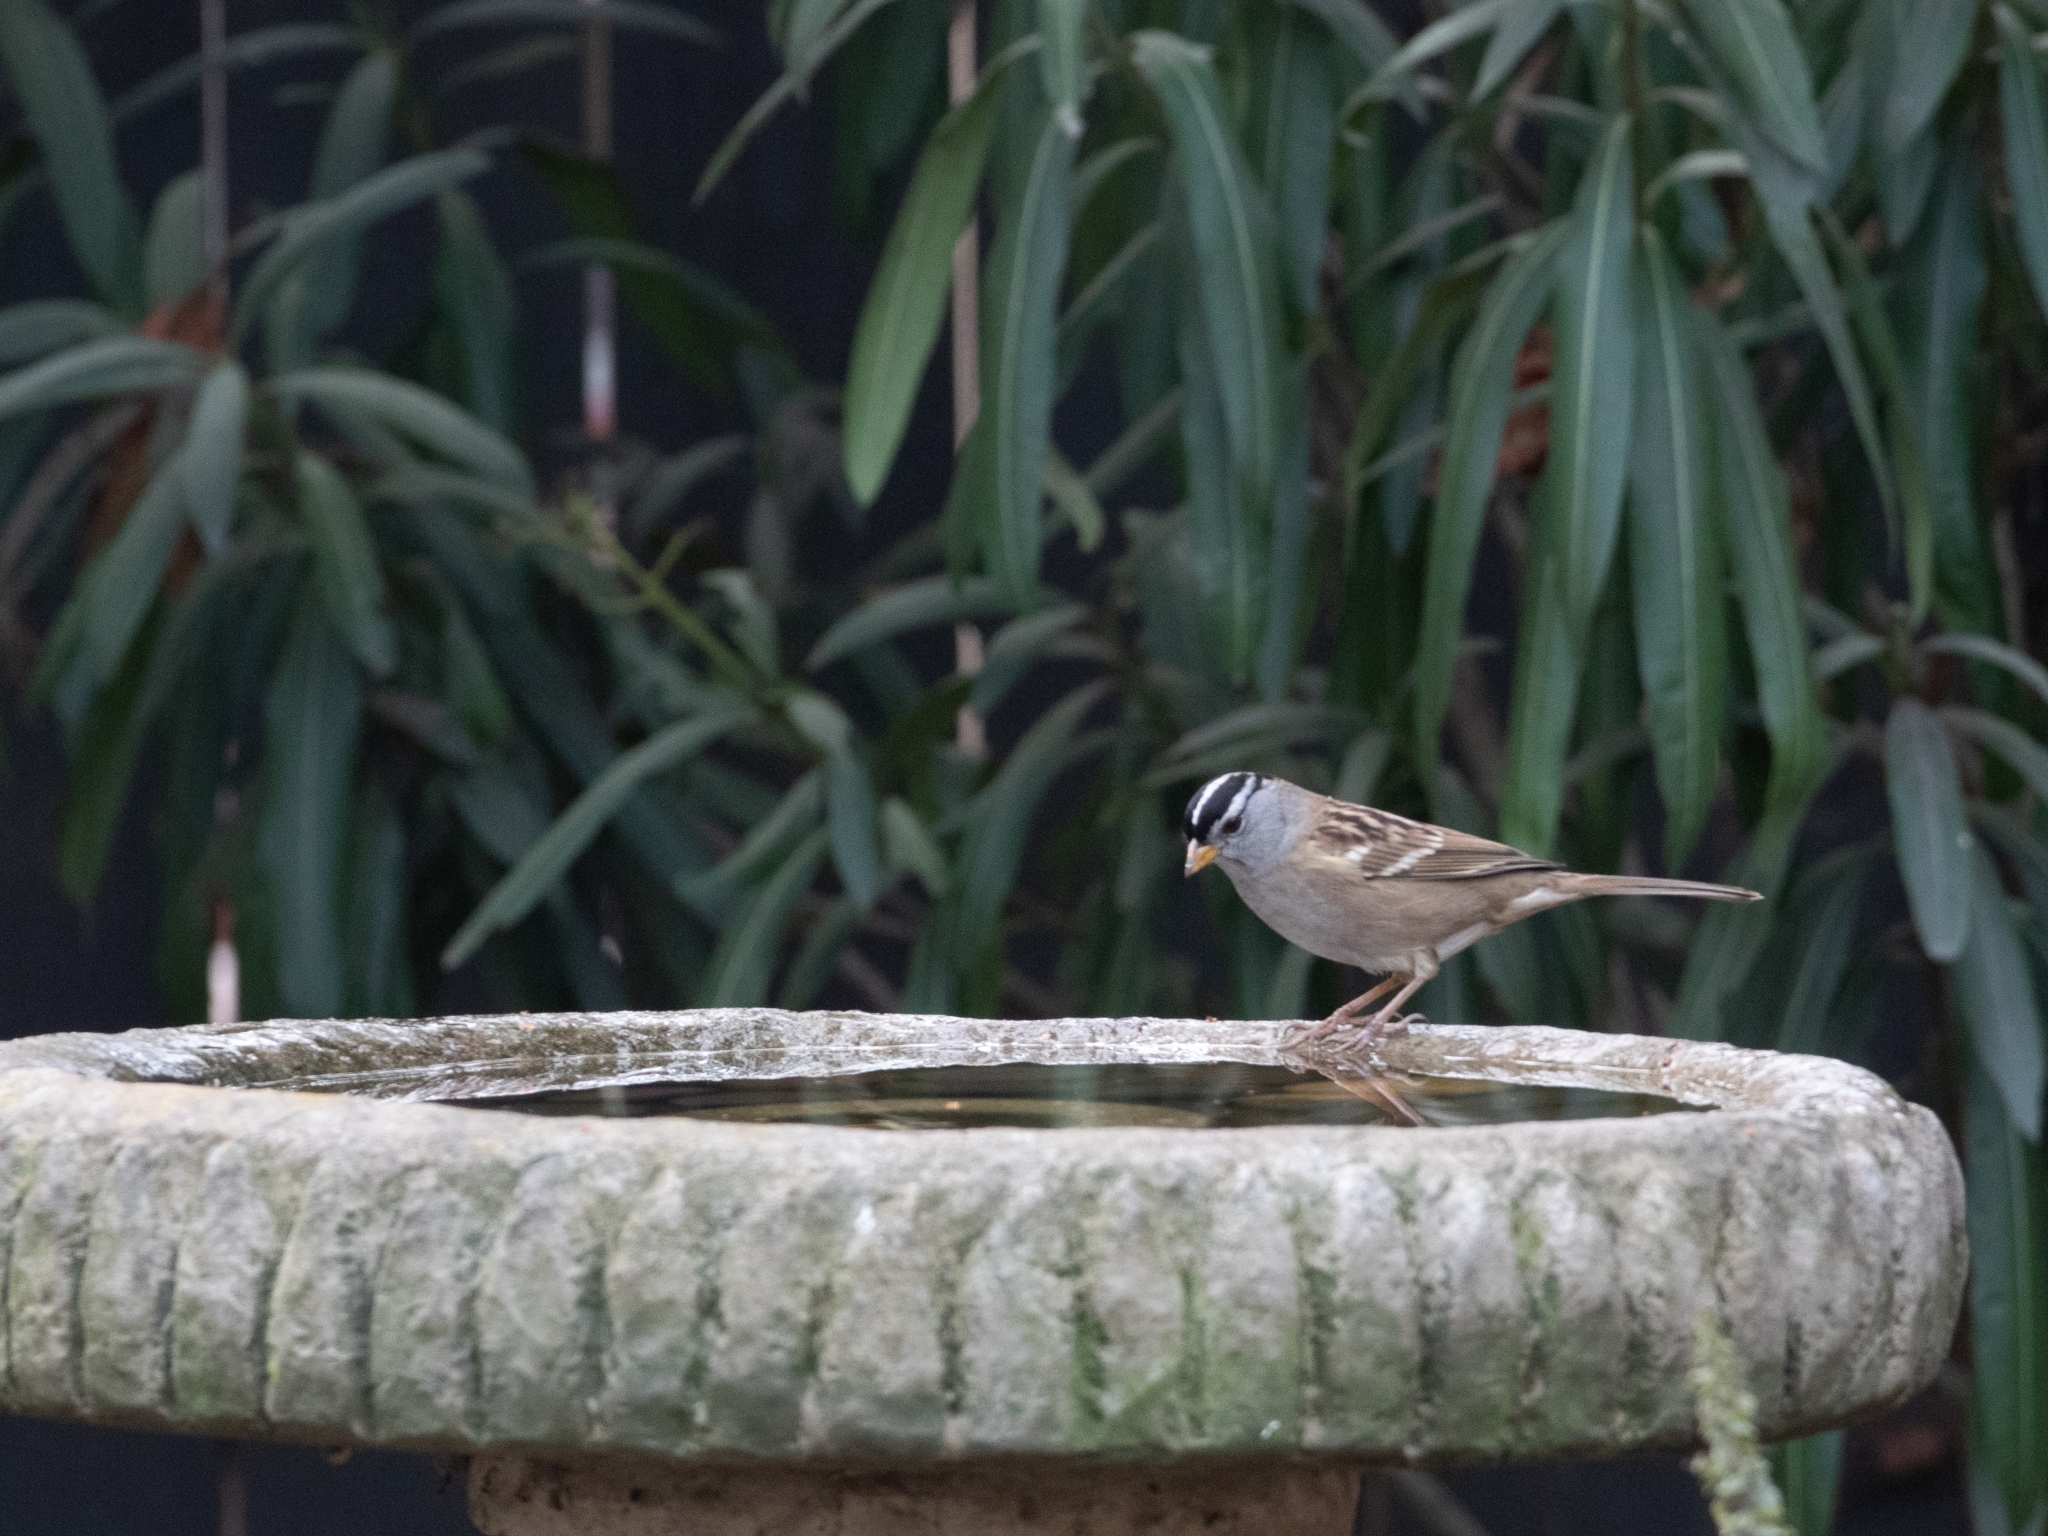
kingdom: Animalia
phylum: Chordata
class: Aves
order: Passeriformes
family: Passerellidae
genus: Zonotrichia
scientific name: Zonotrichia leucophrys
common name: White-crowned sparrow
